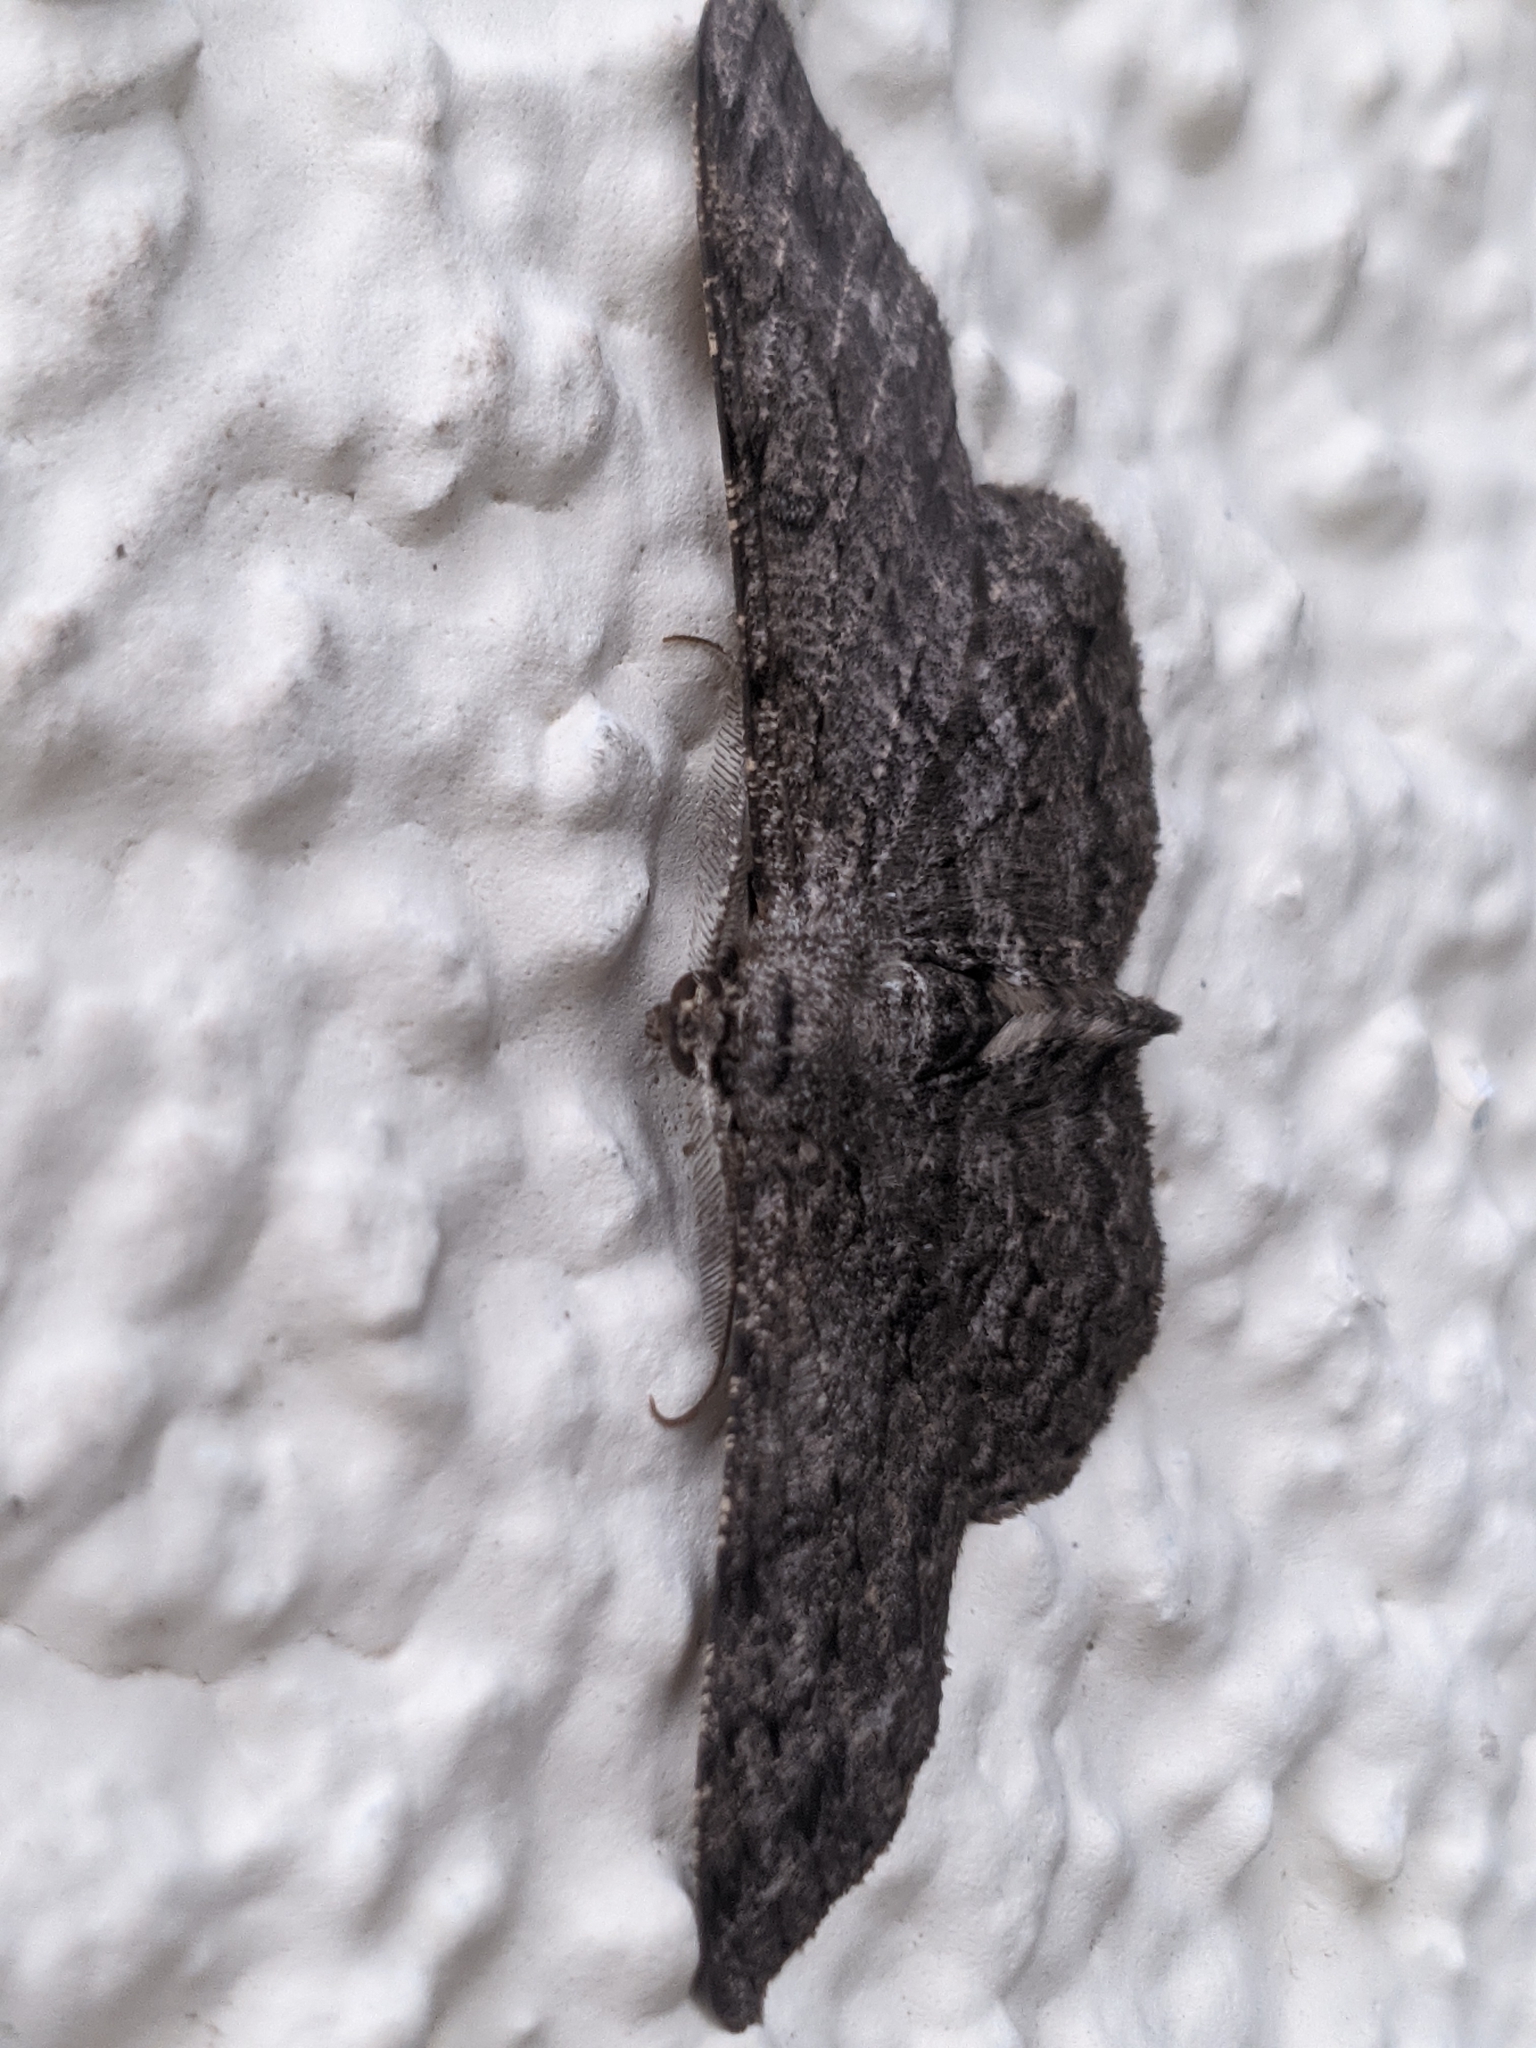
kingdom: Animalia
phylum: Arthropoda
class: Insecta
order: Lepidoptera
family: Geometridae
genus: Hypomecis
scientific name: Hypomecis punctinalis
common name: Pale oak beauty
